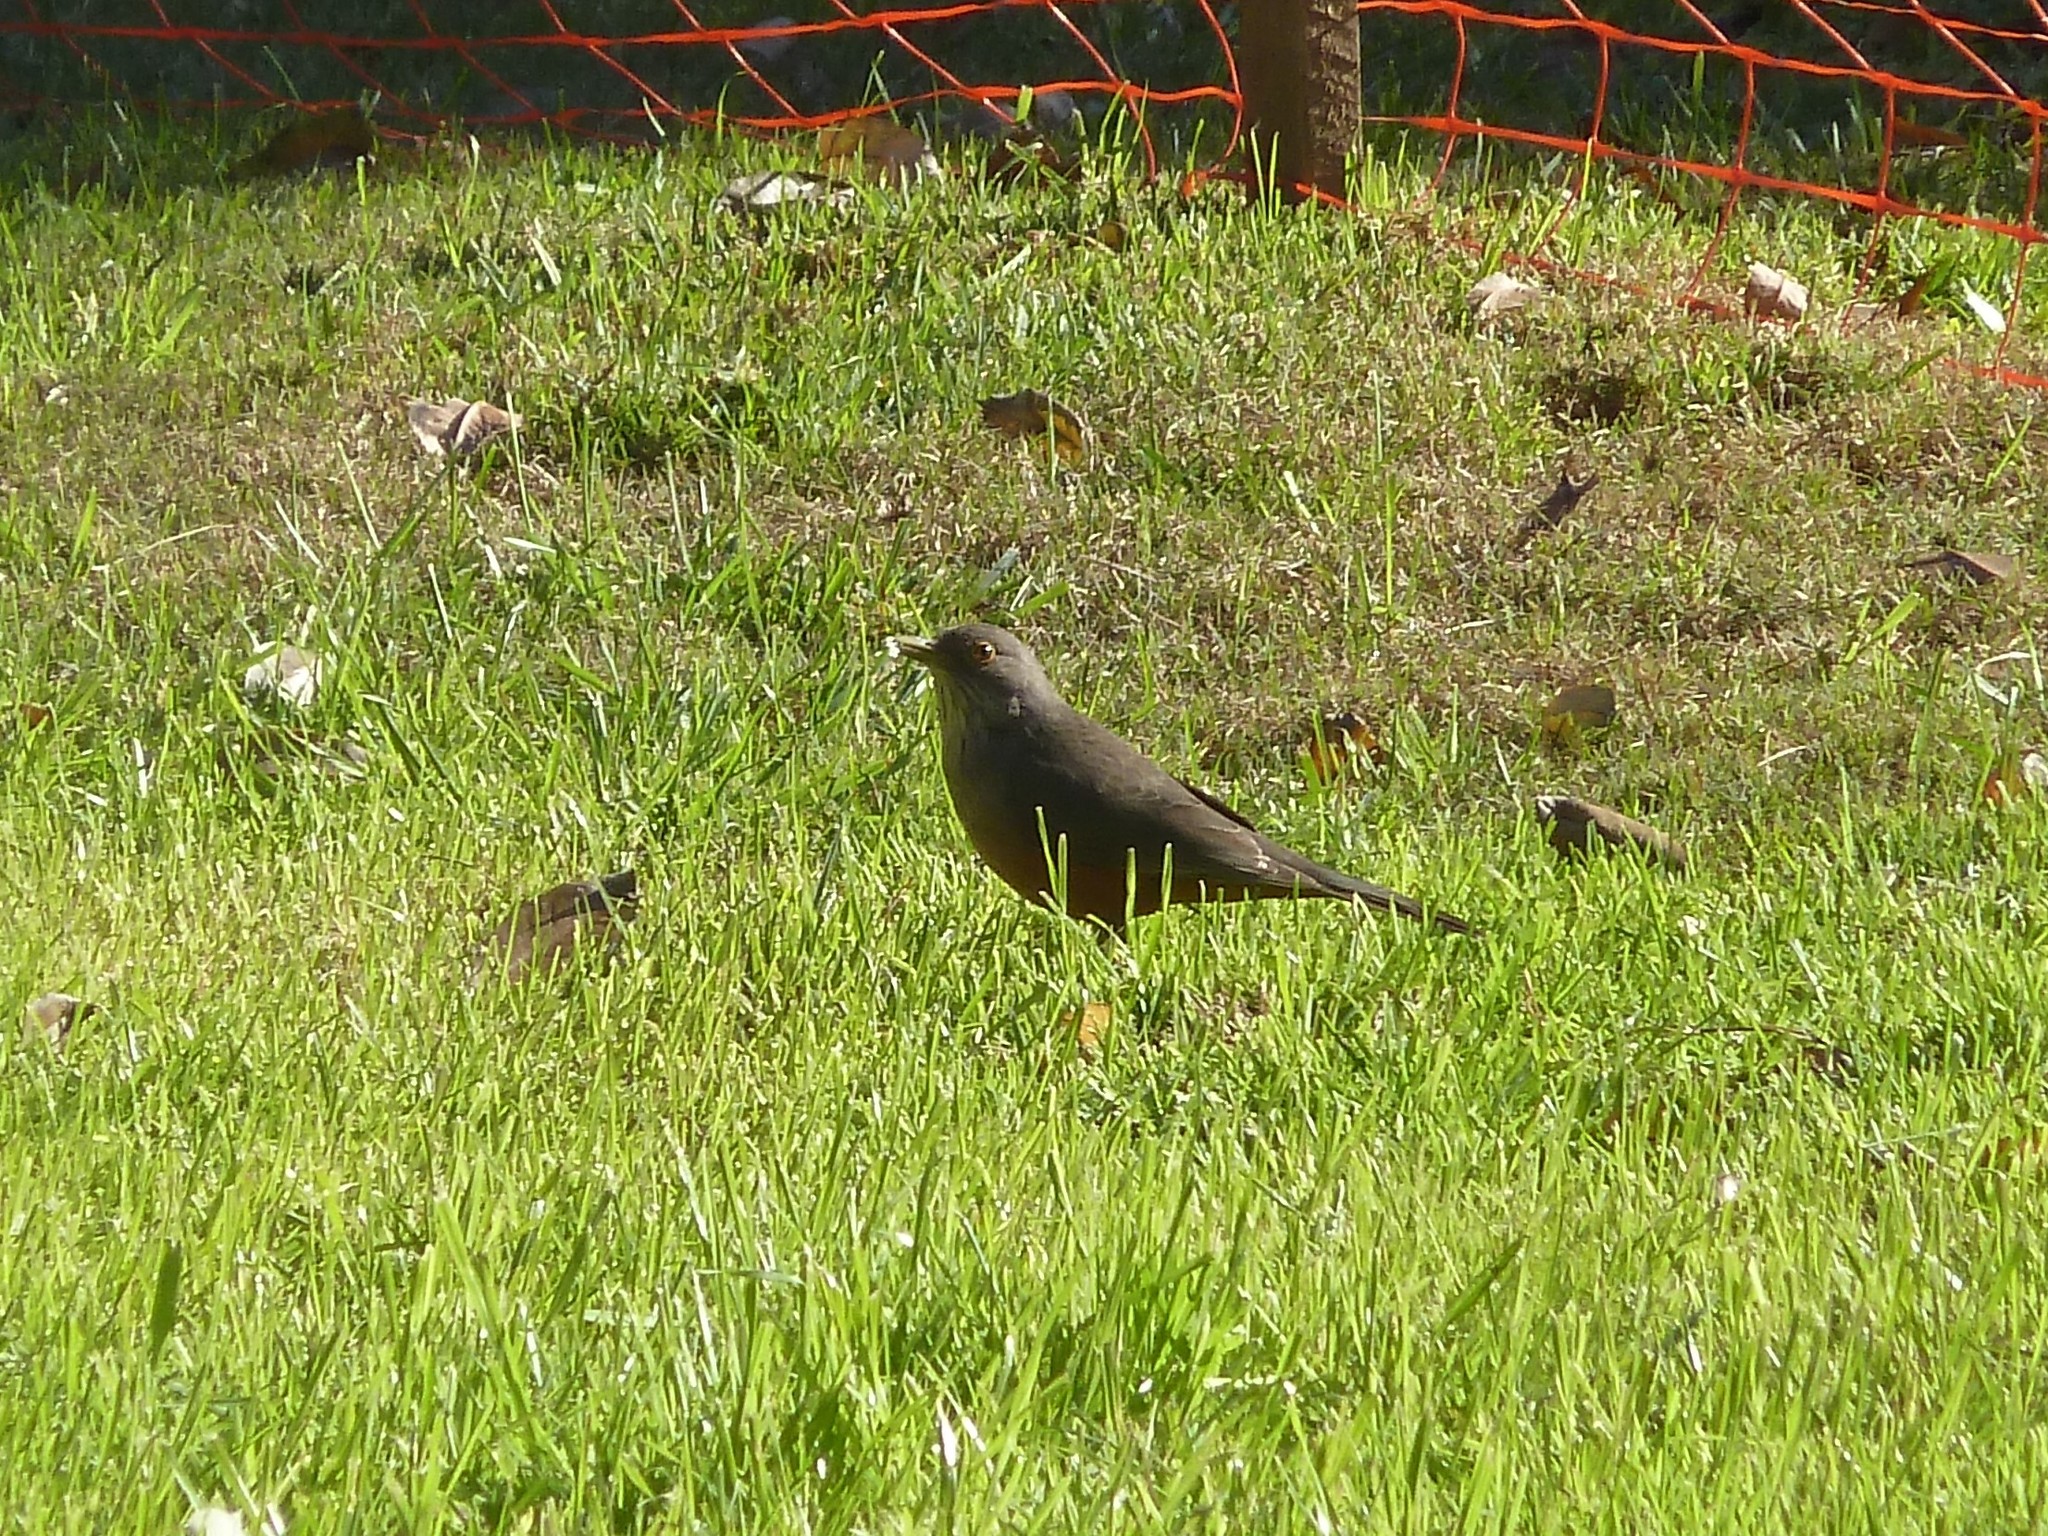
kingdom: Animalia
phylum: Chordata
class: Aves
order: Passeriformes
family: Turdidae
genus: Turdus
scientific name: Turdus rufiventris
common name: Rufous-bellied thrush
